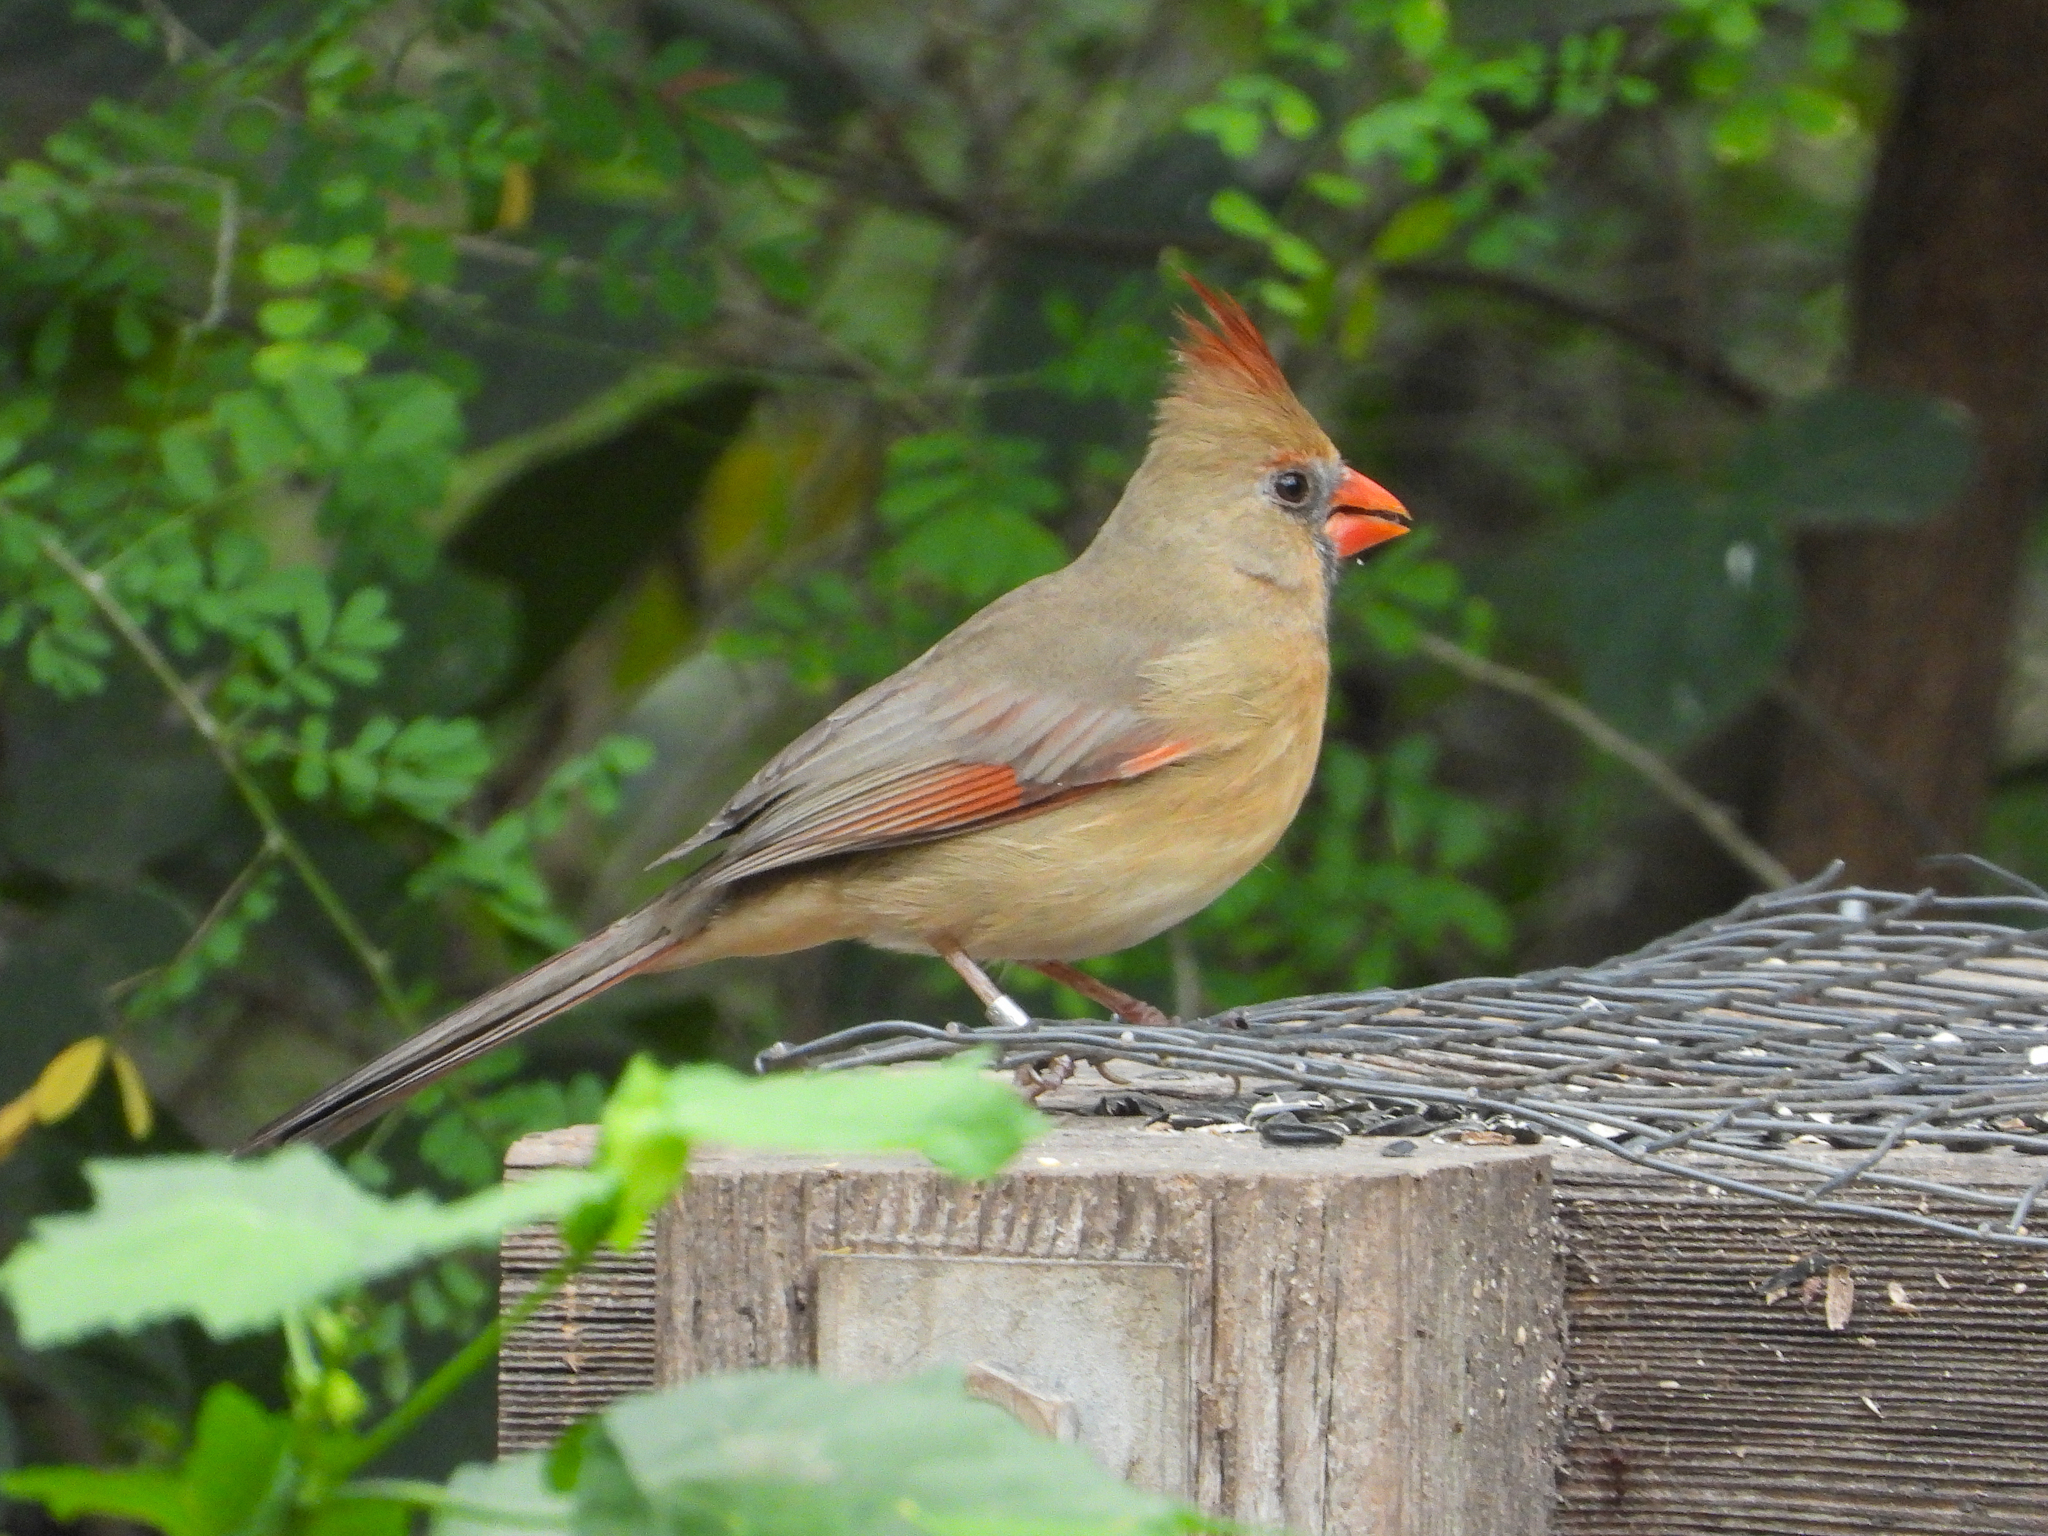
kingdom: Animalia
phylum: Chordata
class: Aves
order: Passeriformes
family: Cardinalidae
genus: Cardinalis
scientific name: Cardinalis cardinalis
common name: Northern cardinal
